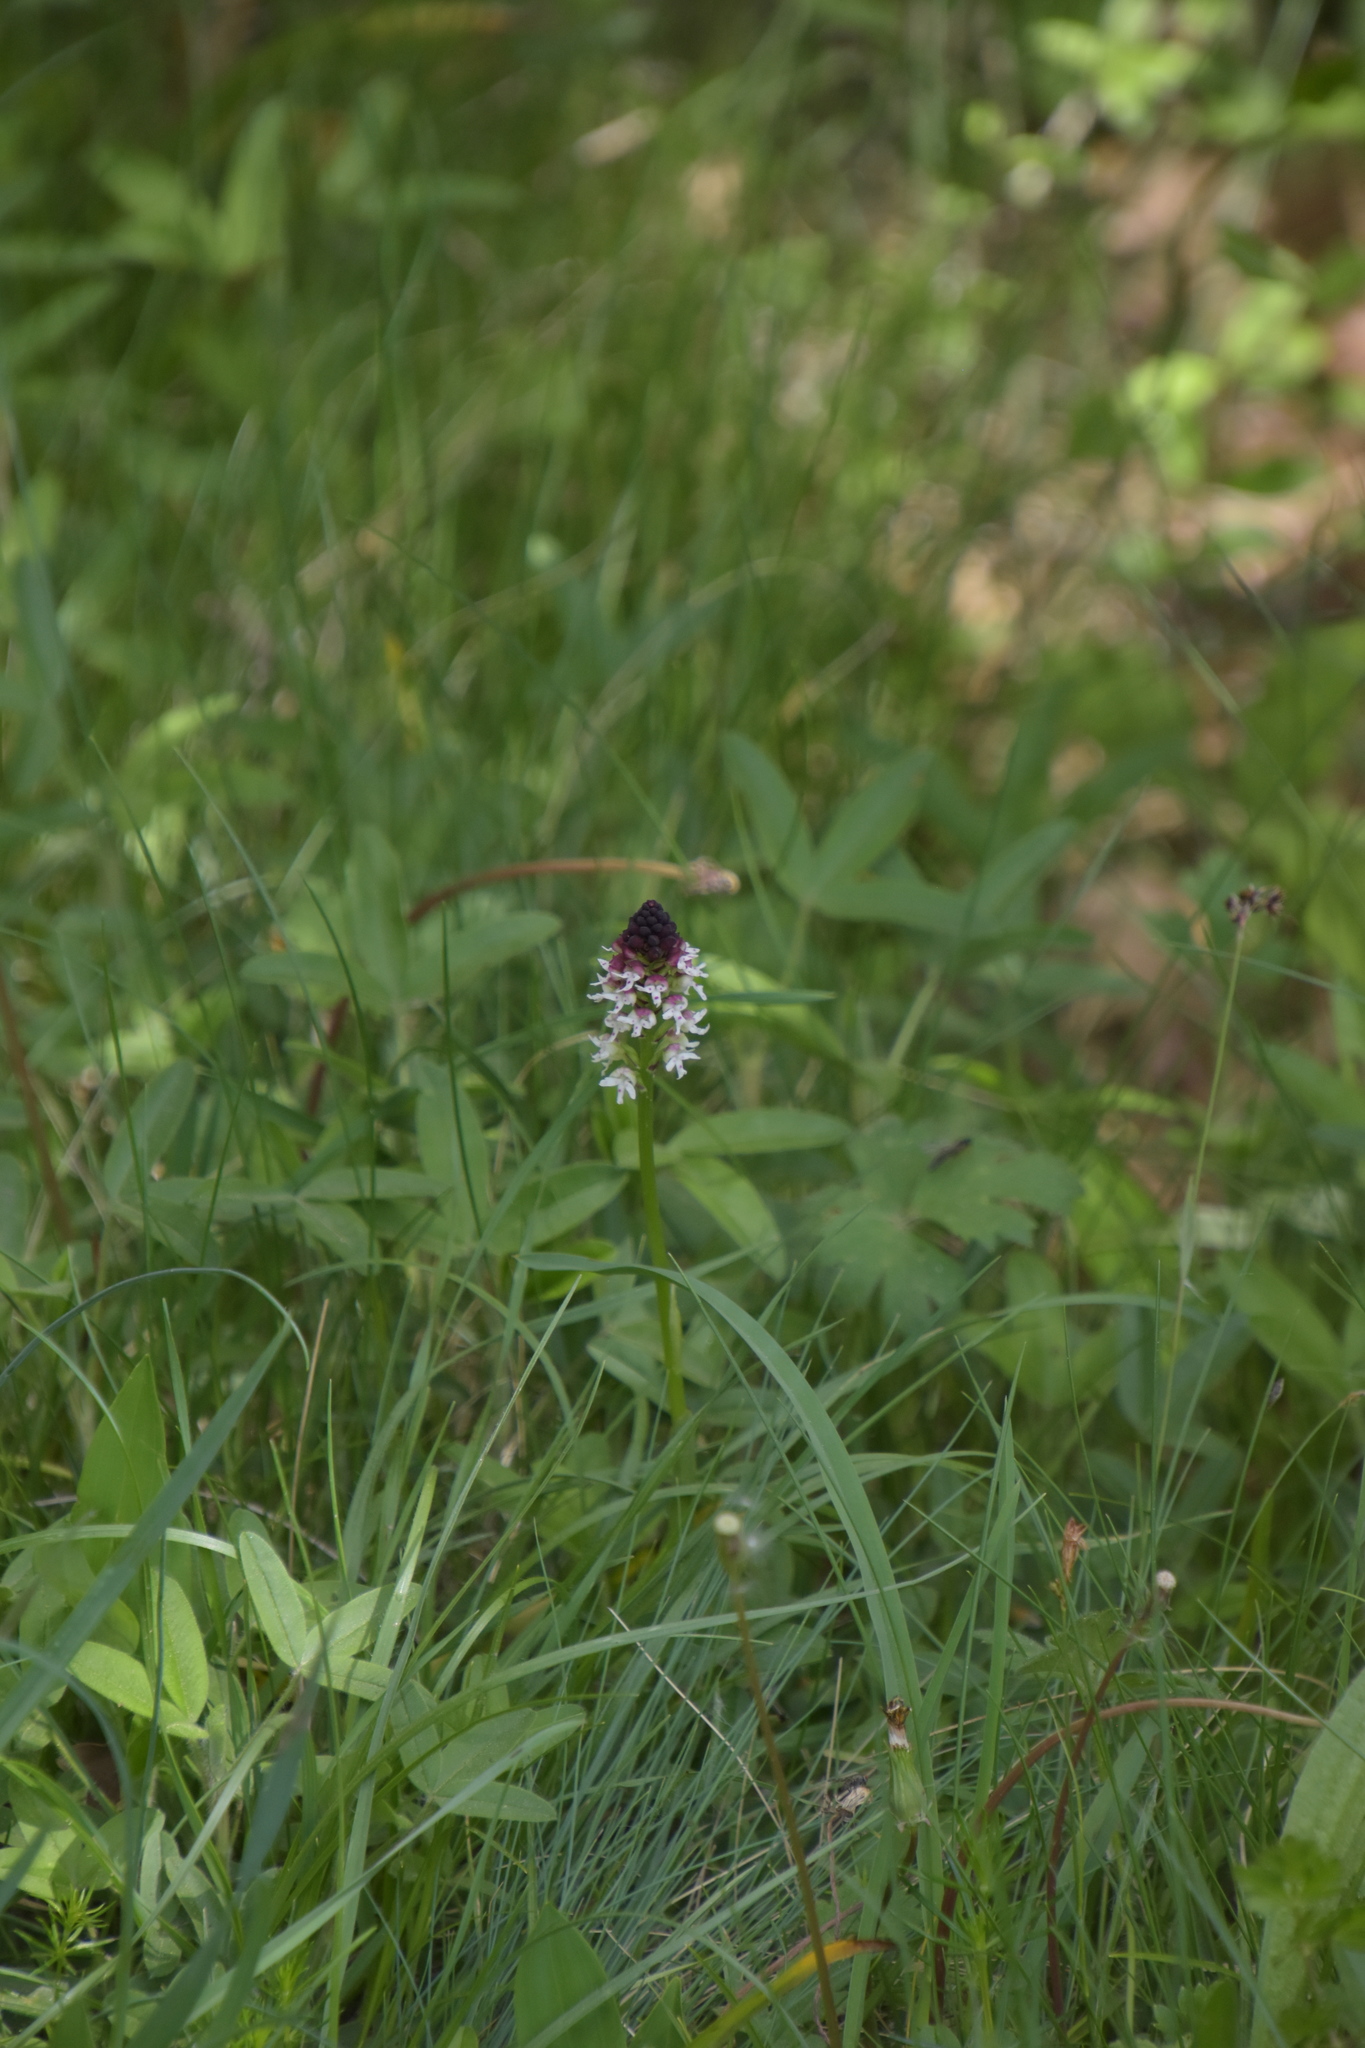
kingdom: Plantae
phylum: Tracheophyta
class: Liliopsida
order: Asparagales
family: Orchidaceae
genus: Neotinea
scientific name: Neotinea ustulata
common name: Burnt orchid
